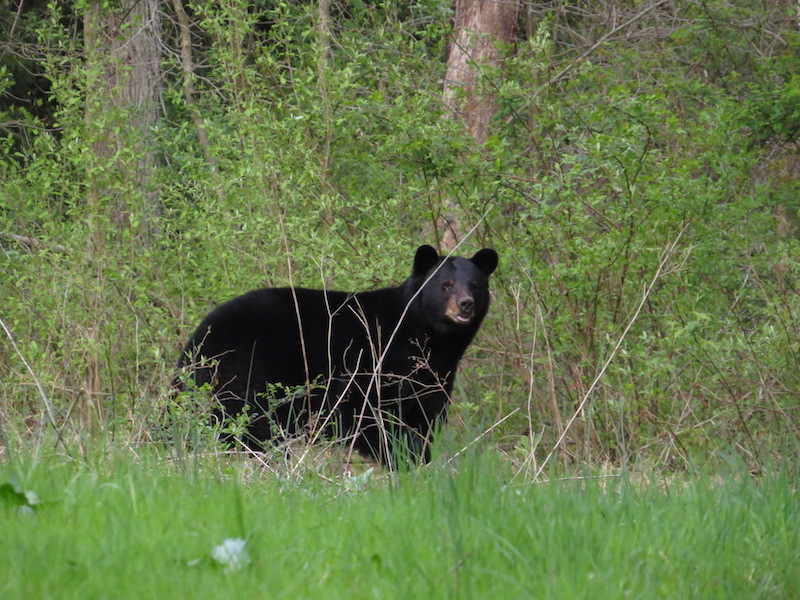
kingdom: Animalia
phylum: Chordata
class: Mammalia
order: Carnivora
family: Ursidae
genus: Ursus
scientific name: Ursus americanus
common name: American black bear
